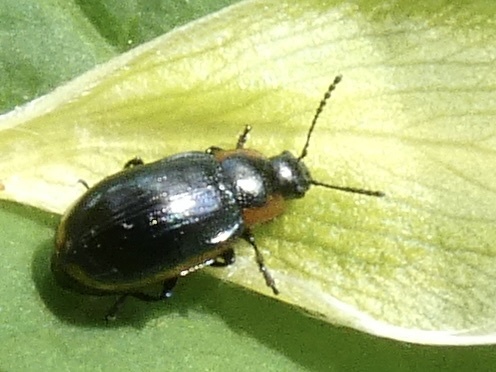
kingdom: Animalia
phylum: Arthropoda
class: Insecta
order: Coleoptera
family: Chrysomelidae
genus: Prasocuris
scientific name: Prasocuris marginella
